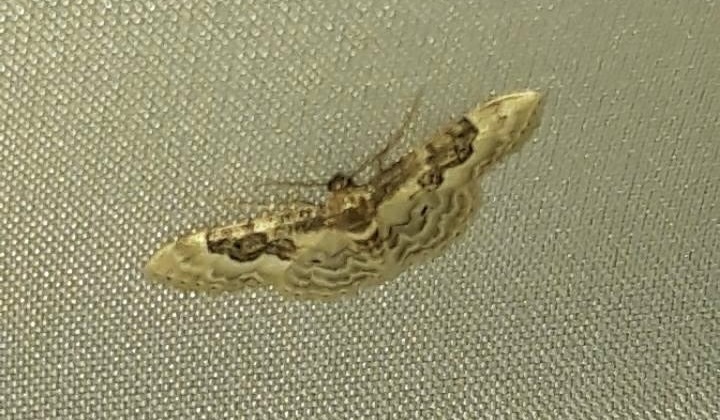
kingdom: Animalia
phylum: Arthropoda
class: Insecta
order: Lepidoptera
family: Geometridae
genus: Idaea
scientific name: Idaea rusticata
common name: Least carpet
